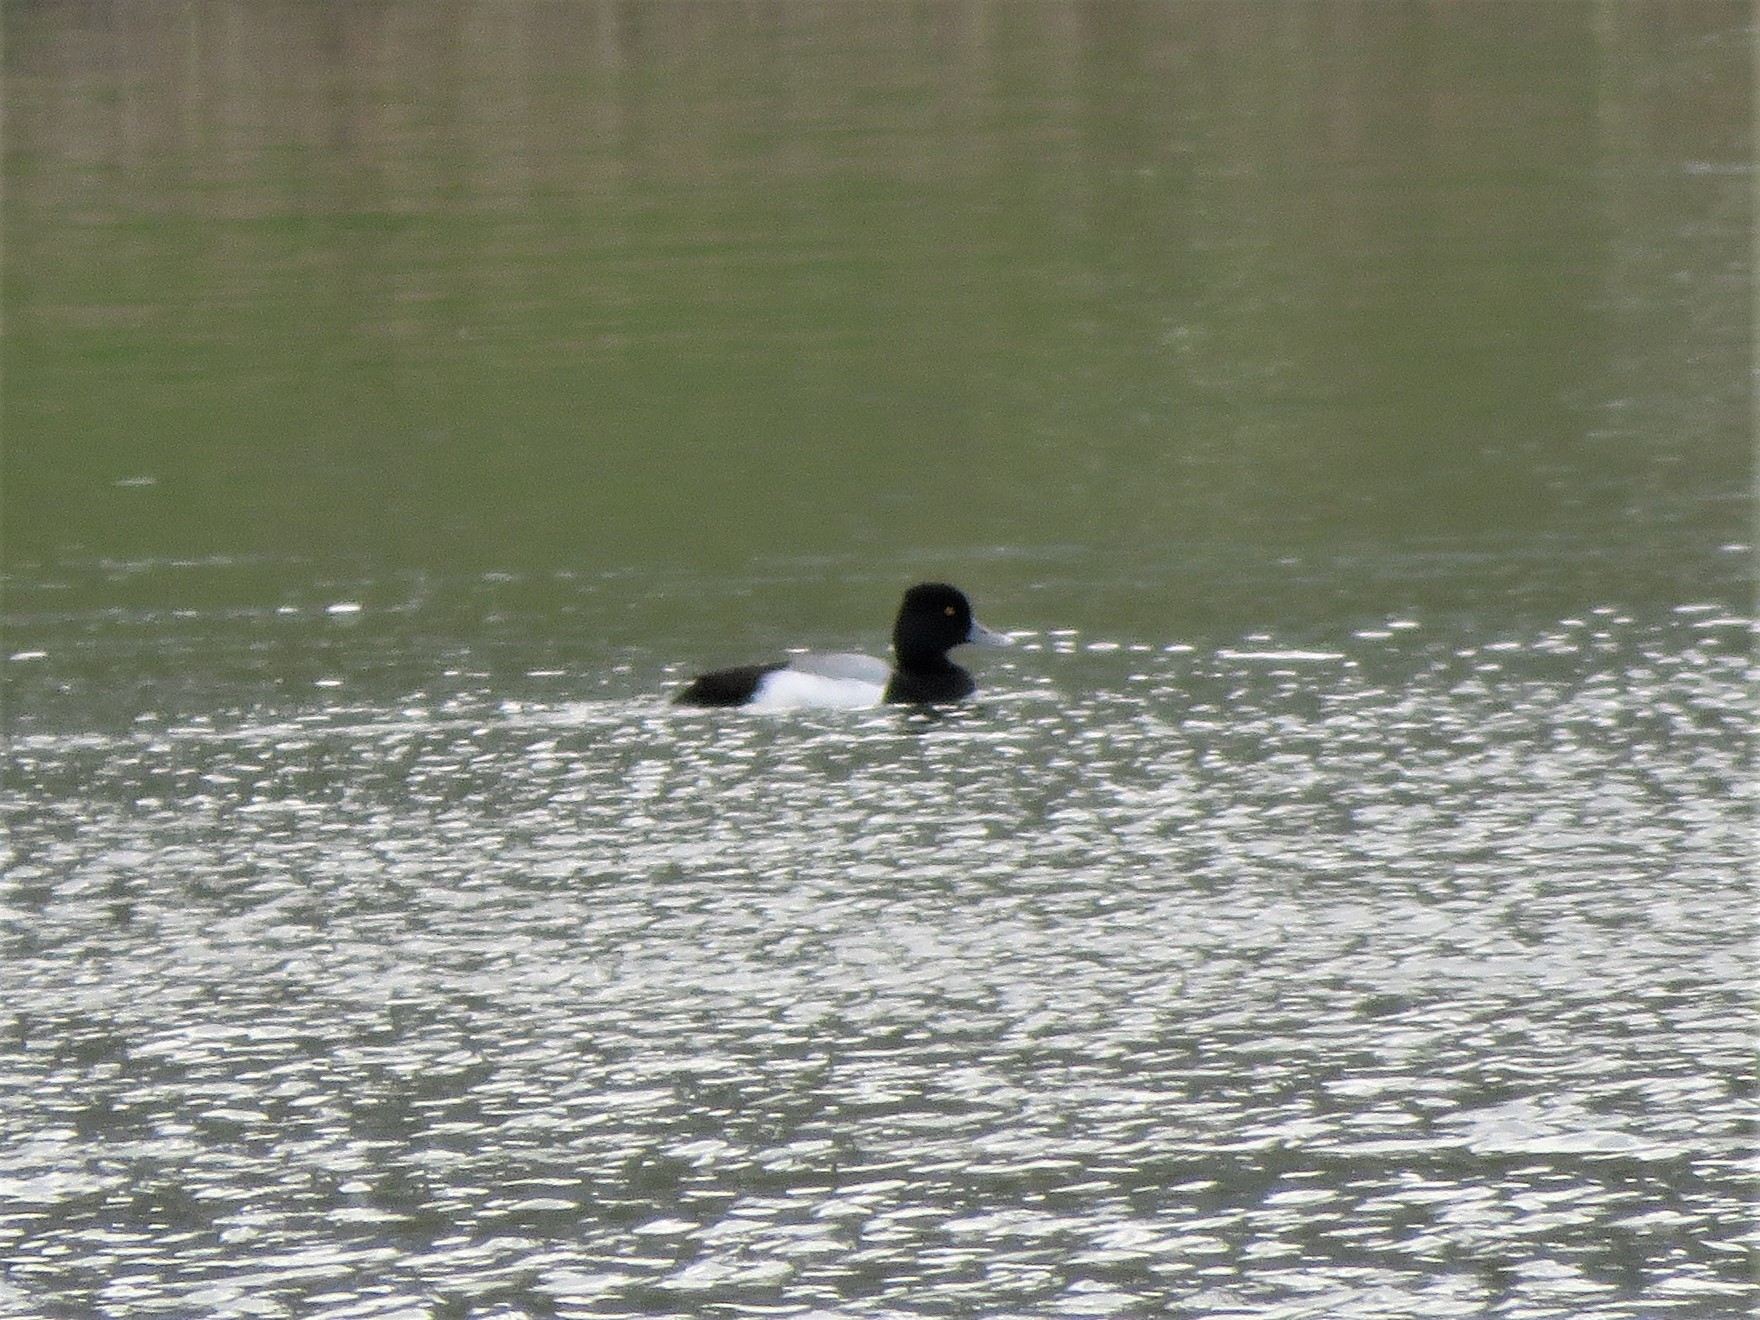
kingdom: Animalia
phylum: Chordata
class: Aves
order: Anseriformes
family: Anatidae
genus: Aythya
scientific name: Aythya affinis
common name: Lesser scaup
